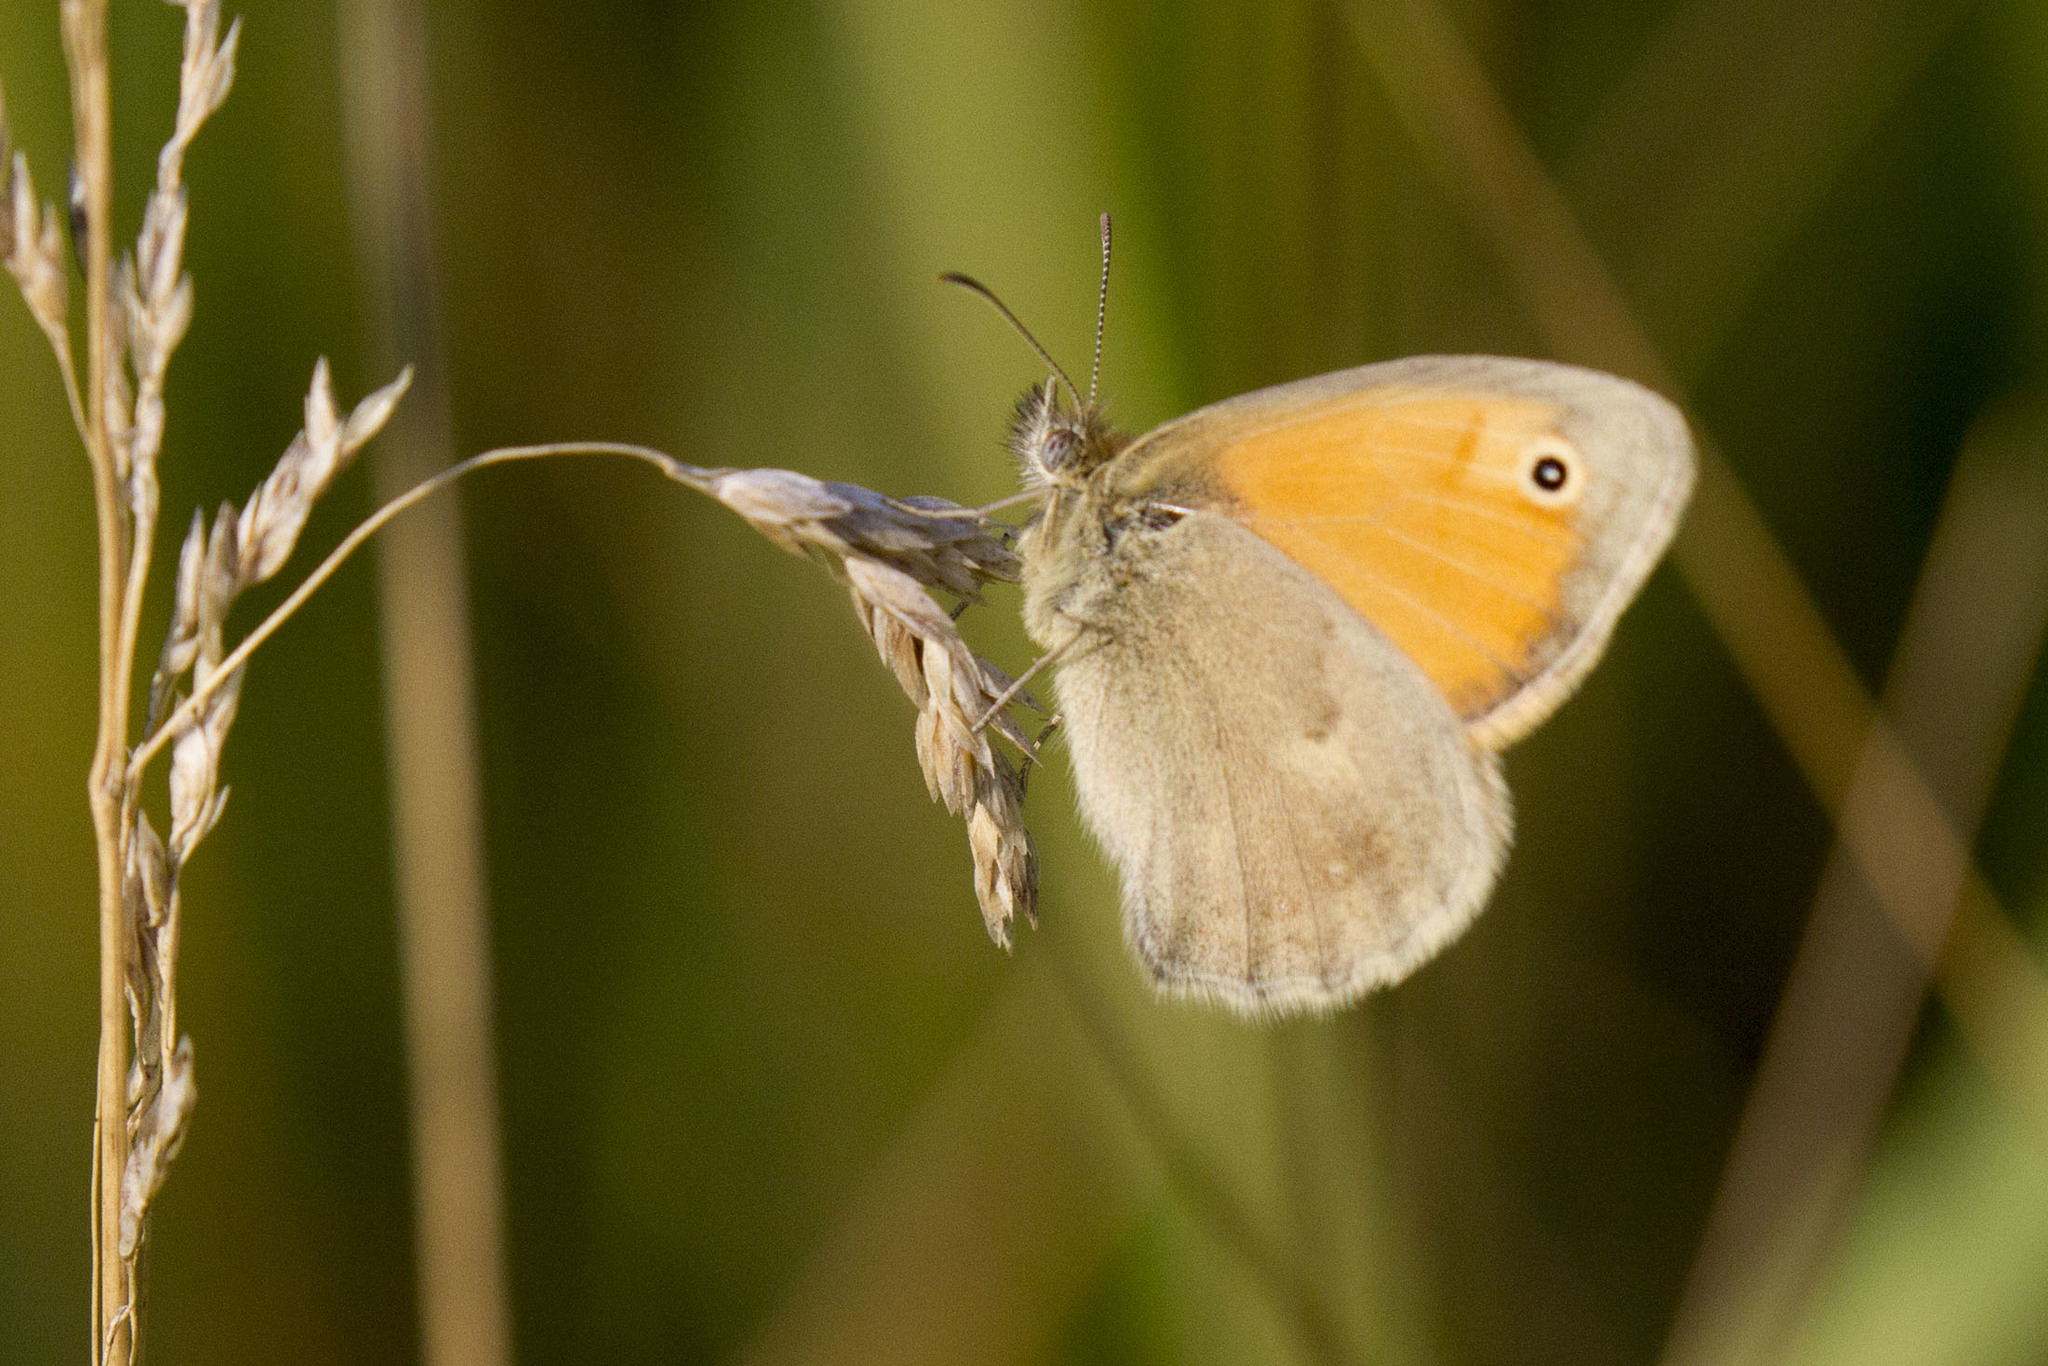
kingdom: Animalia
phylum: Arthropoda
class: Insecta
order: Lepidoptera
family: Nymphalidae
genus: Coenonympha
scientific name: Coenonympha pamphilus
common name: Small heath
